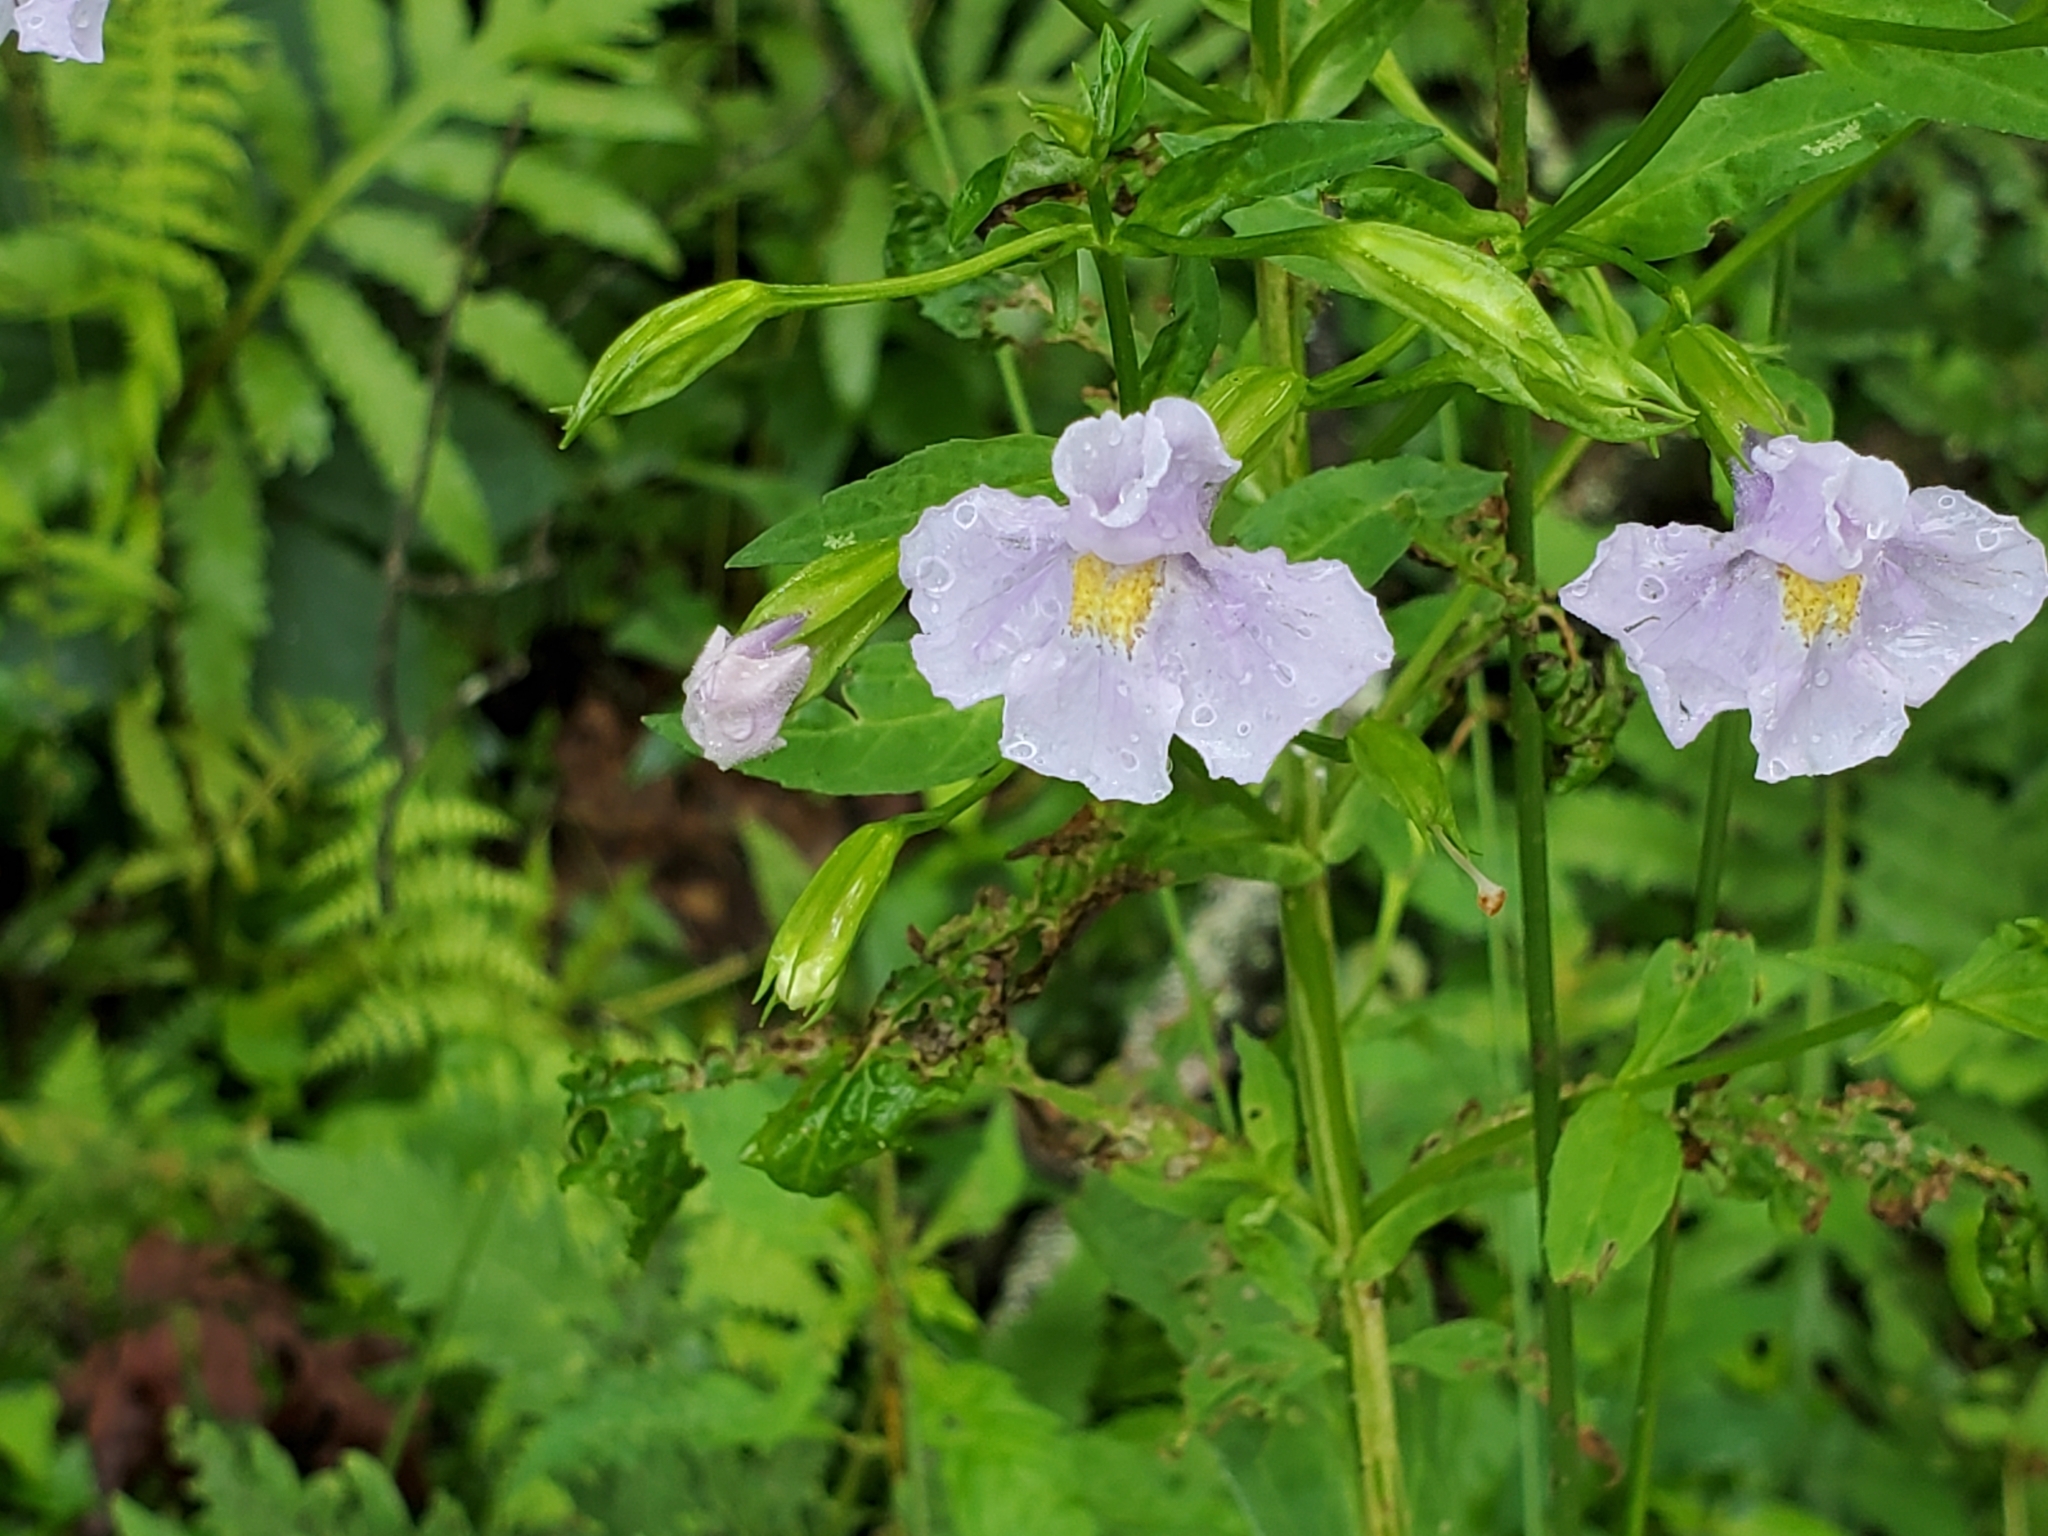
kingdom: Plantae
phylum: Tracheophyta
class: Magnoliopsida
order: Lamiales
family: Phrymaceae
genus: Mimulus
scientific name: Mimulus ringens
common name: Allegheny monkeyflower
